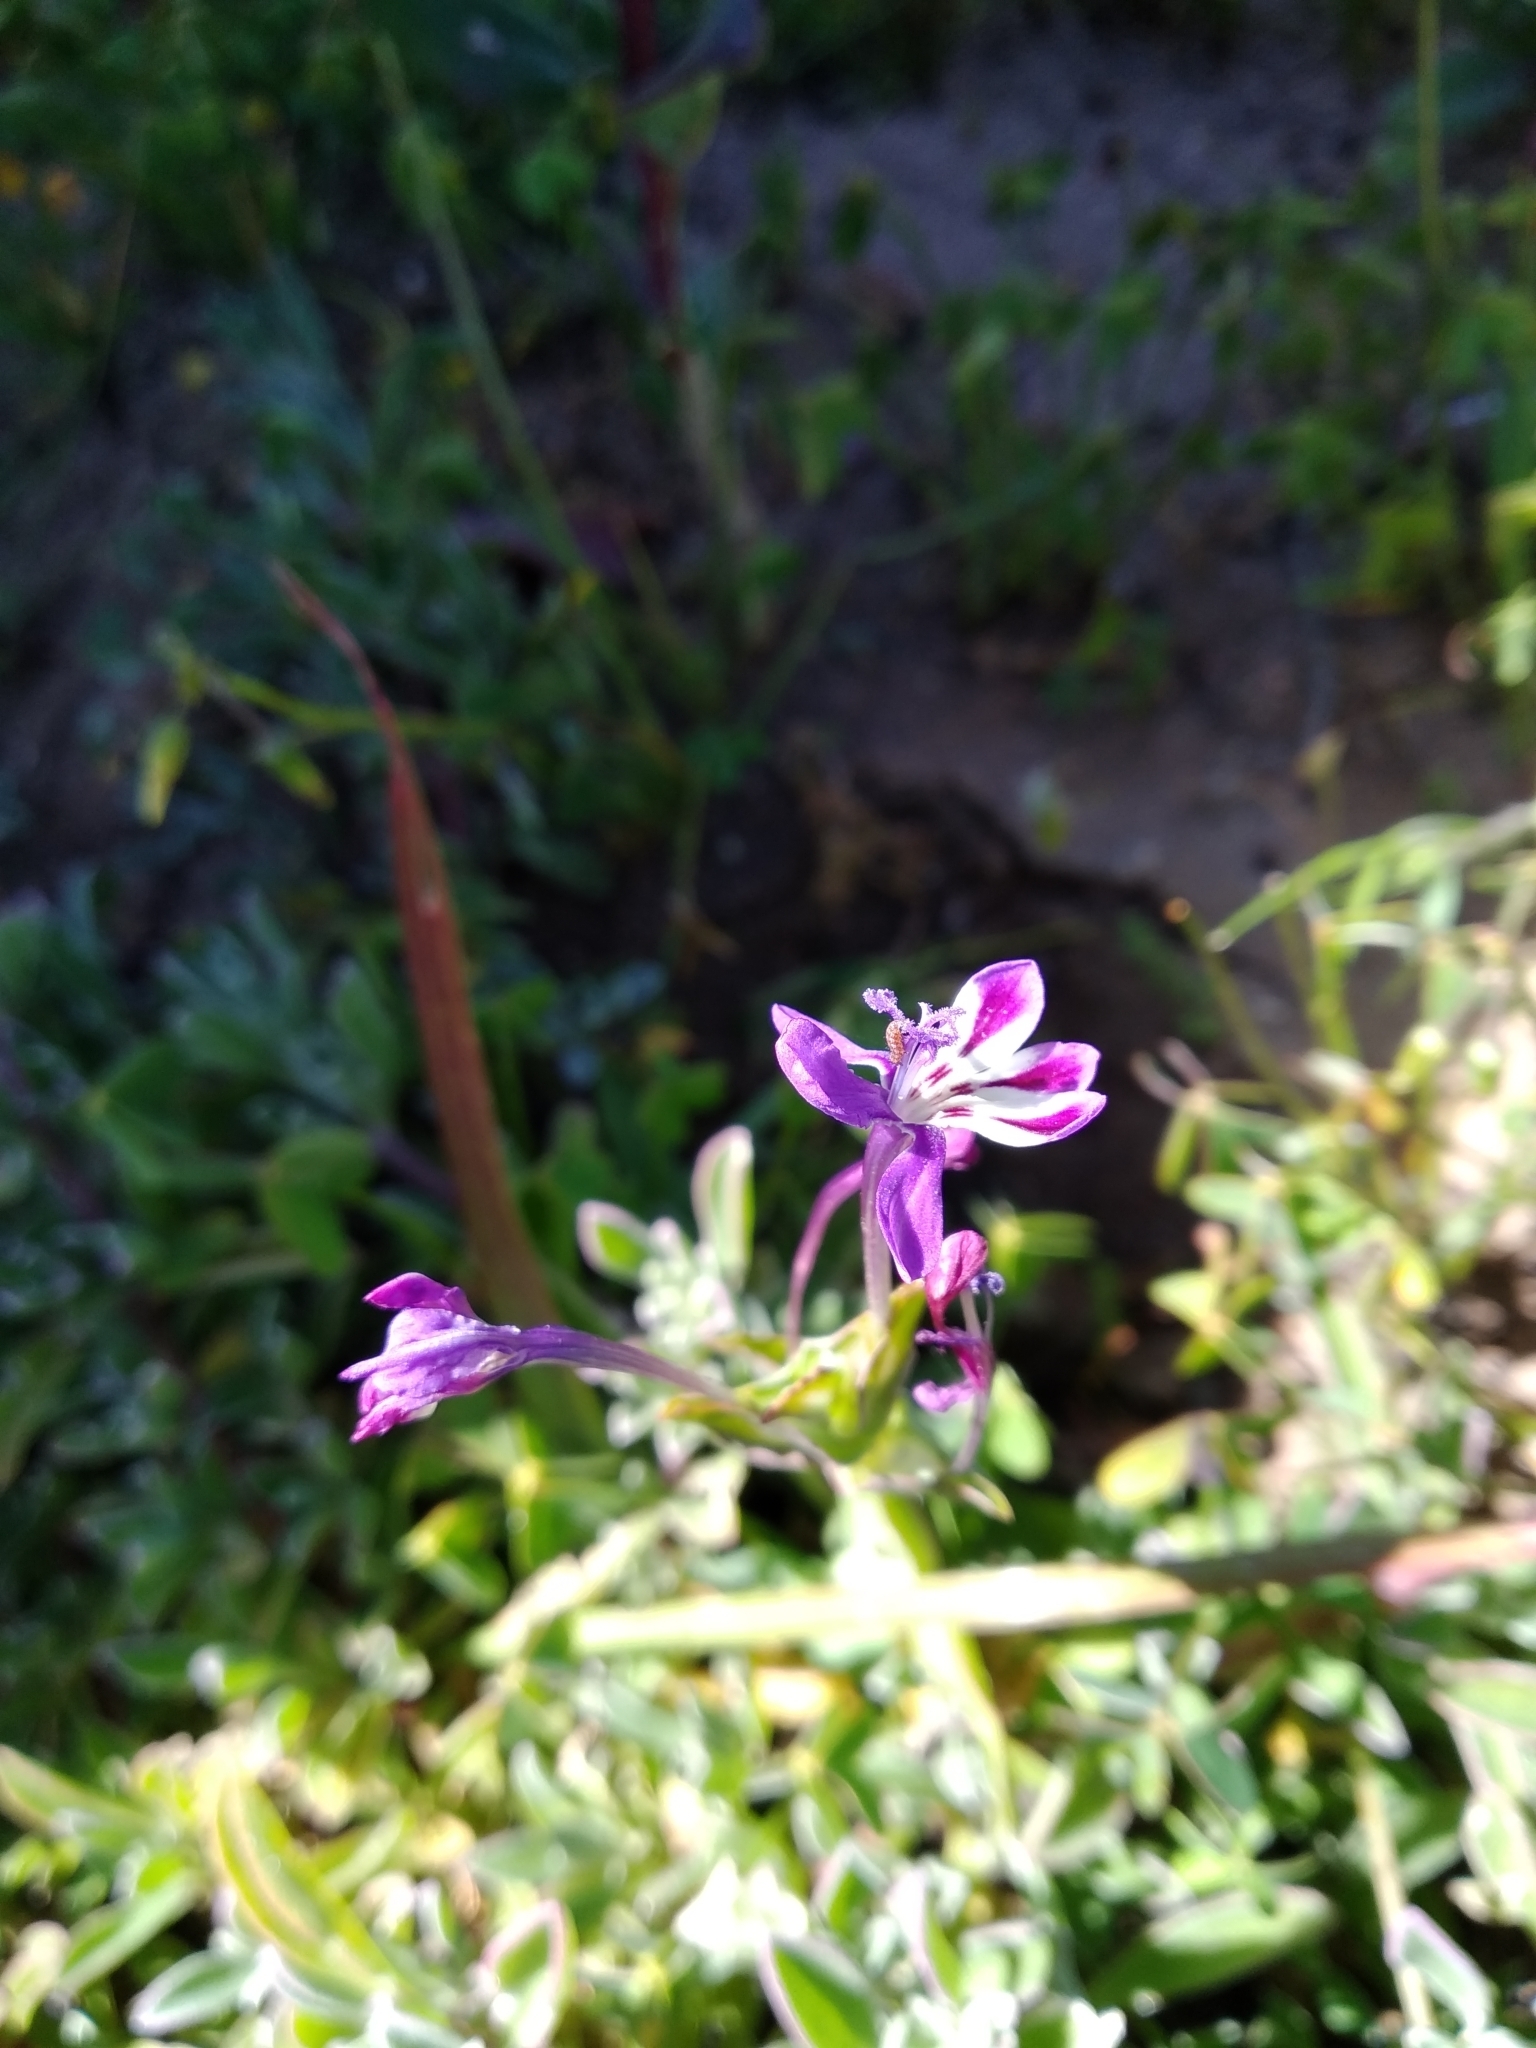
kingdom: Plantae
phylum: Tracheophyta
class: Liliopsida
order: Asparagales
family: Iridaceae
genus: Lapeirousia
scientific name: Lapeirousia jacquinii
